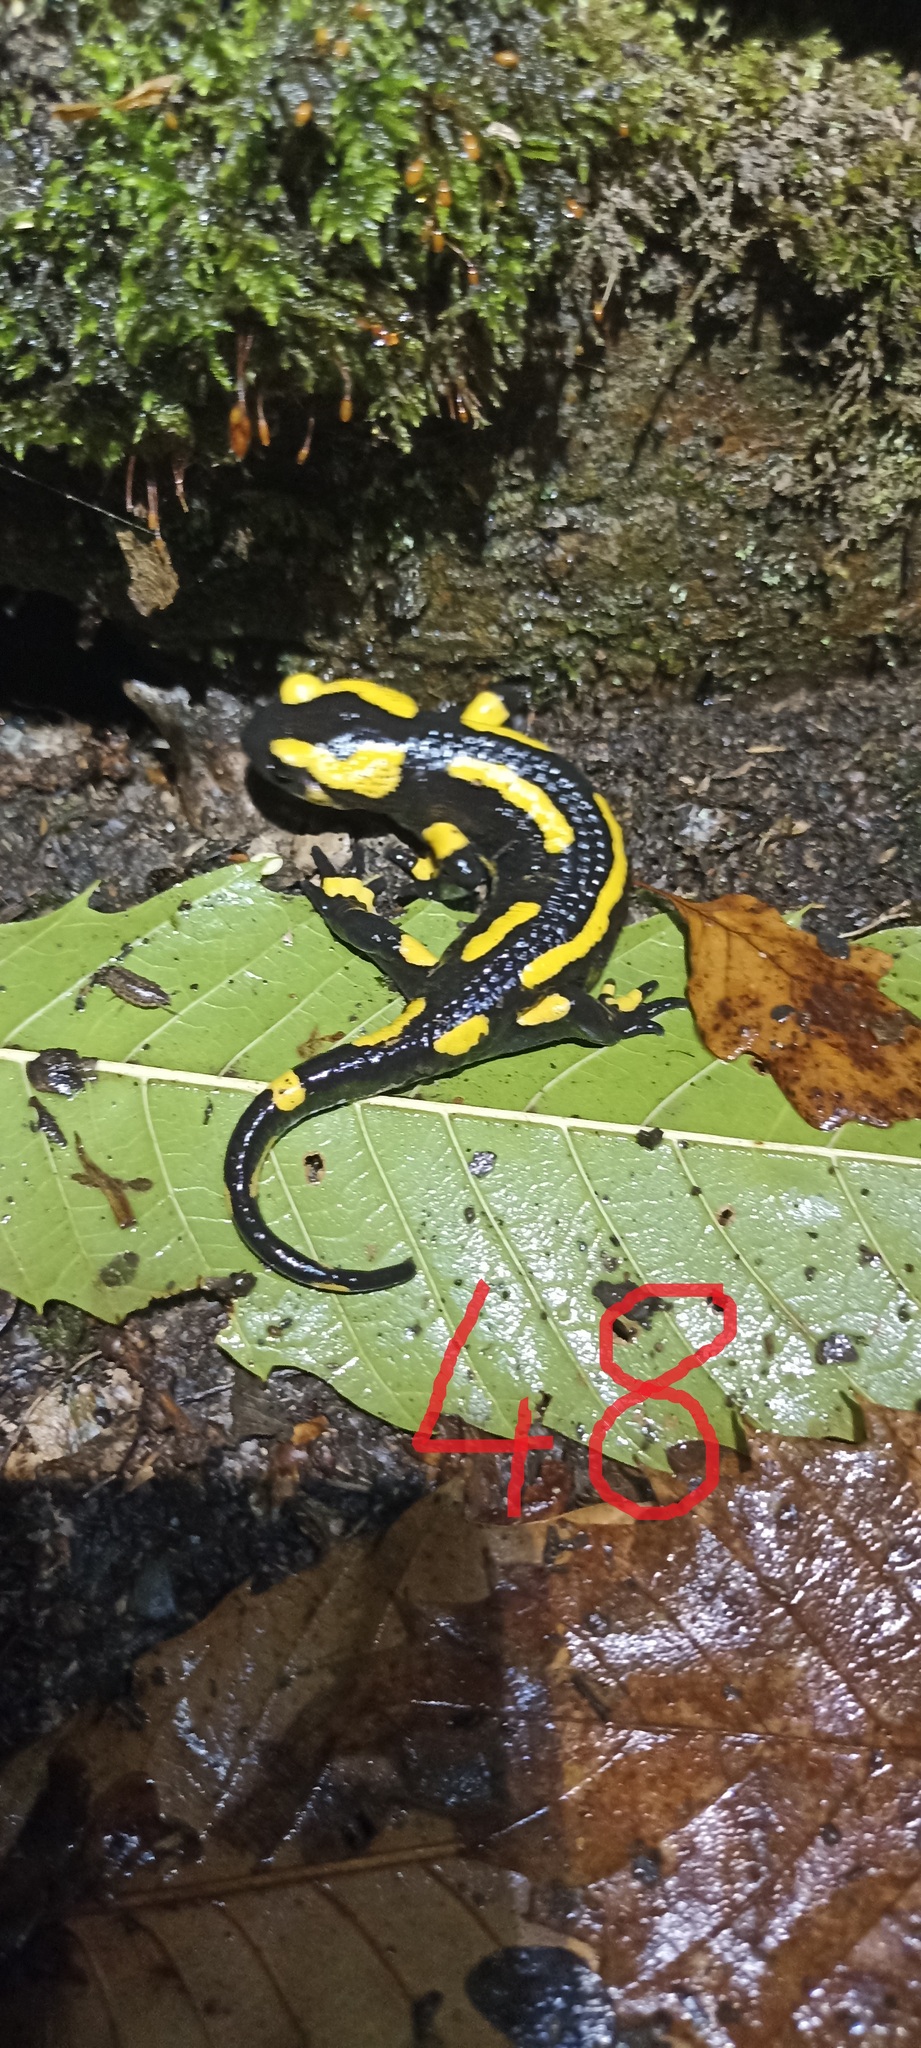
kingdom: Animalia
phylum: Chordata
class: Amphibia
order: Caudata
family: Salamandridae
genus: Salamandra
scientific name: Salamandra salamandra
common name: Fire salamander
